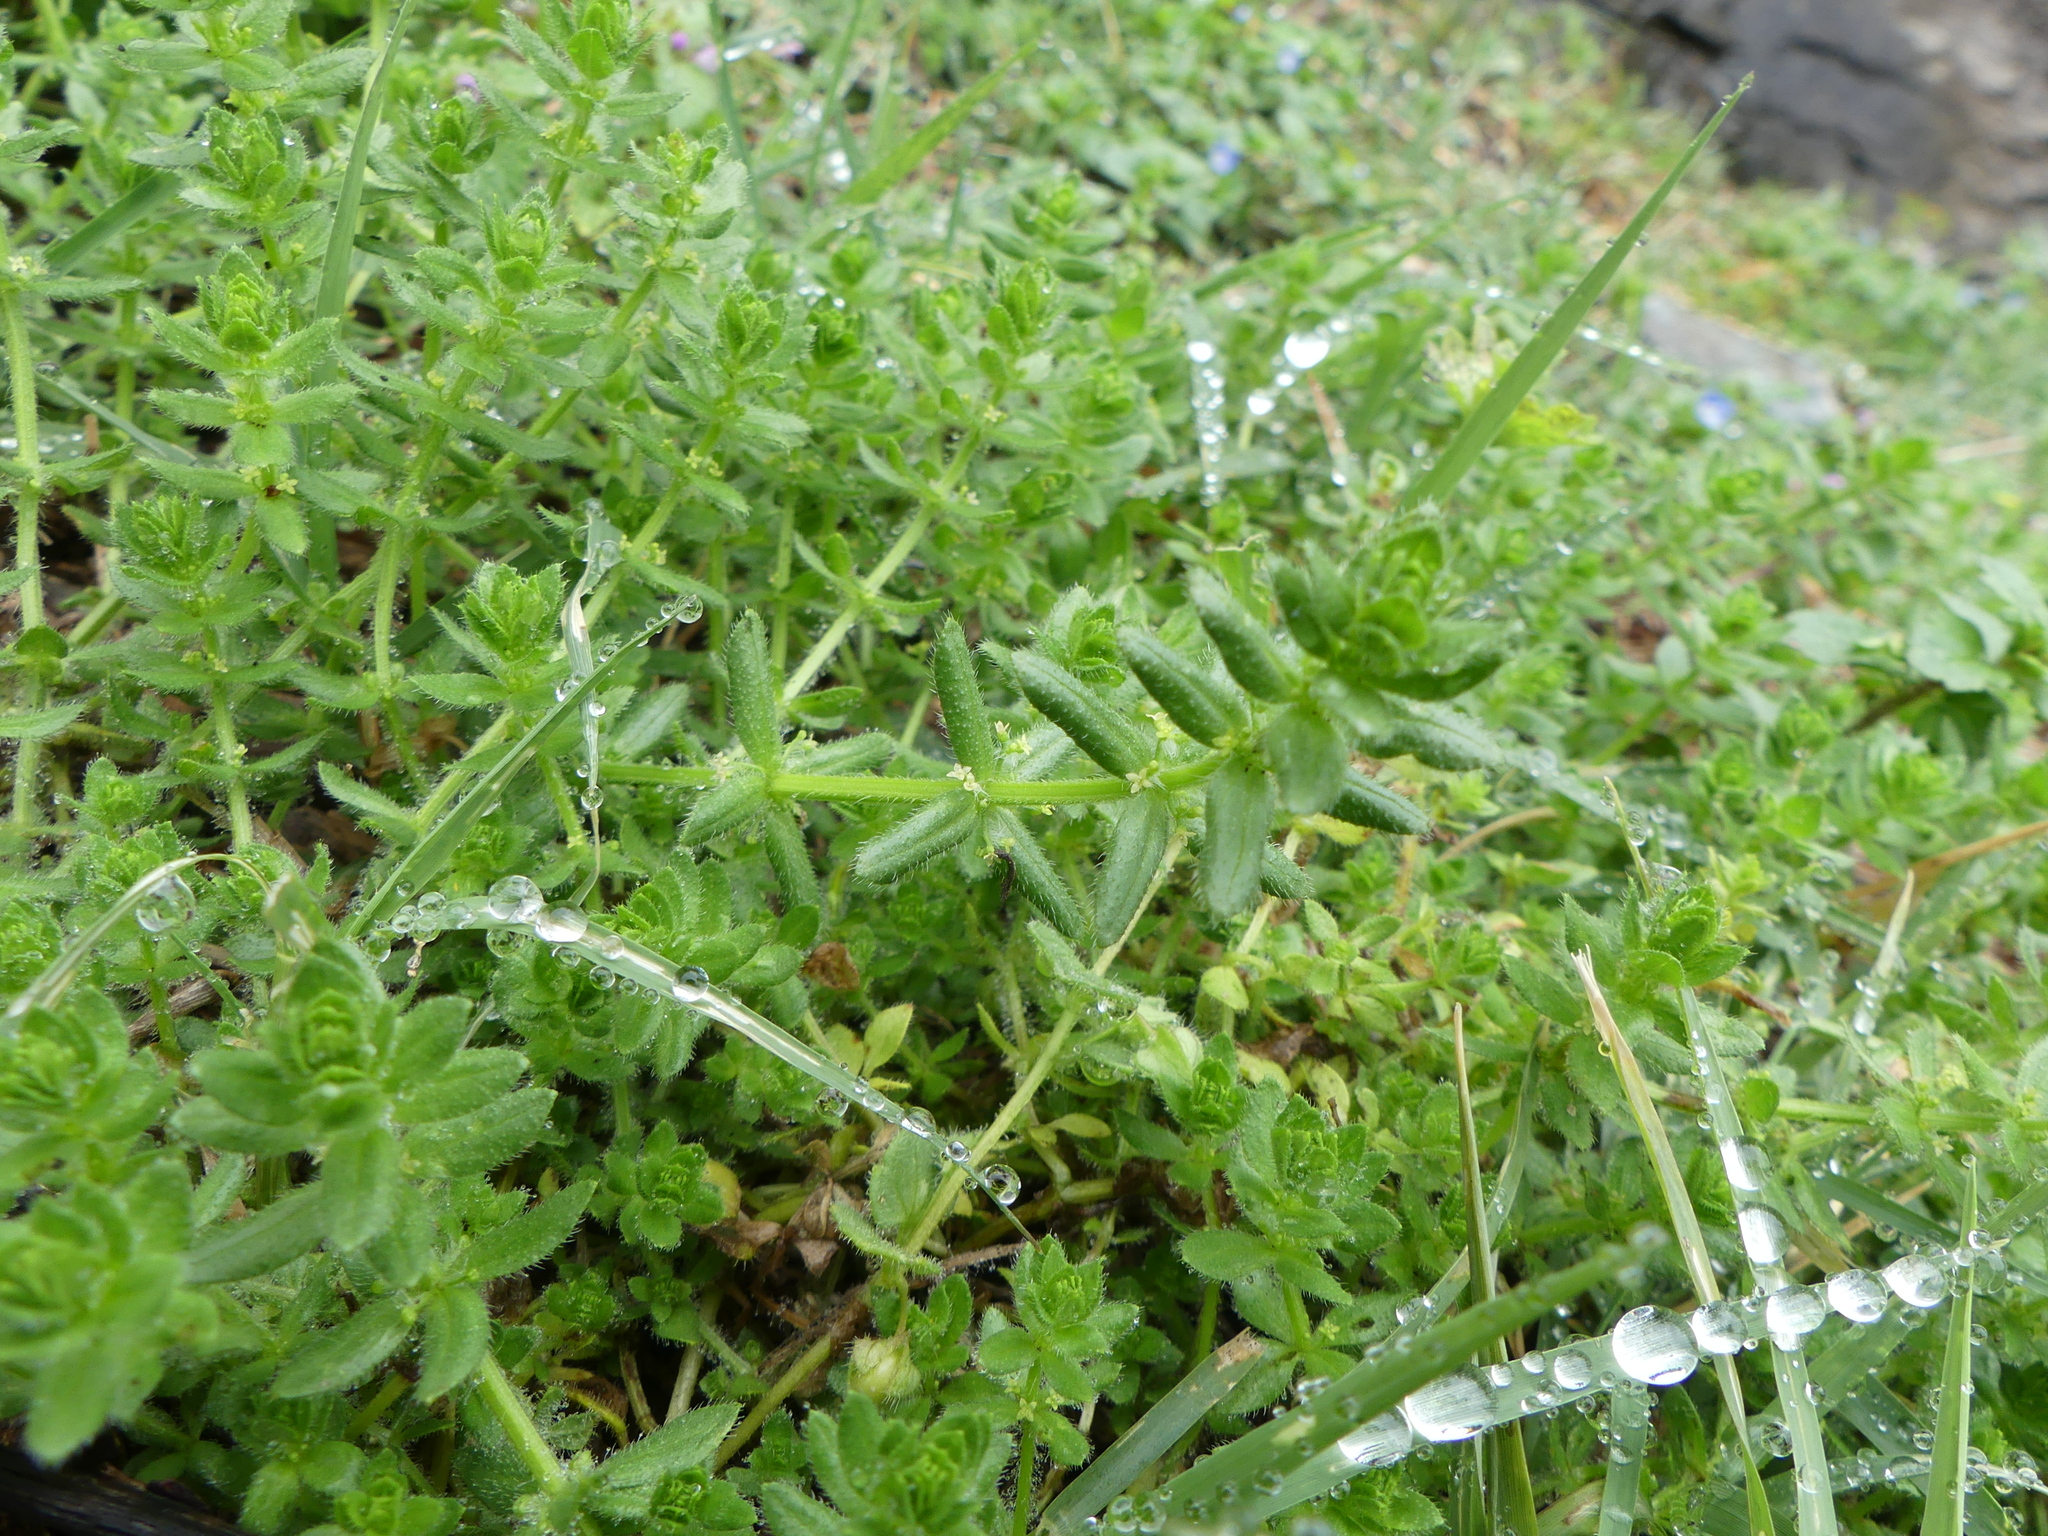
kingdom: Plantae
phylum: Tracheophyta
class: Magnoliopsida
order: Gentianales
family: Rubiaceae
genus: Cruciata
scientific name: Cruciata pedemontana
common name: Piedmont bedstraw
